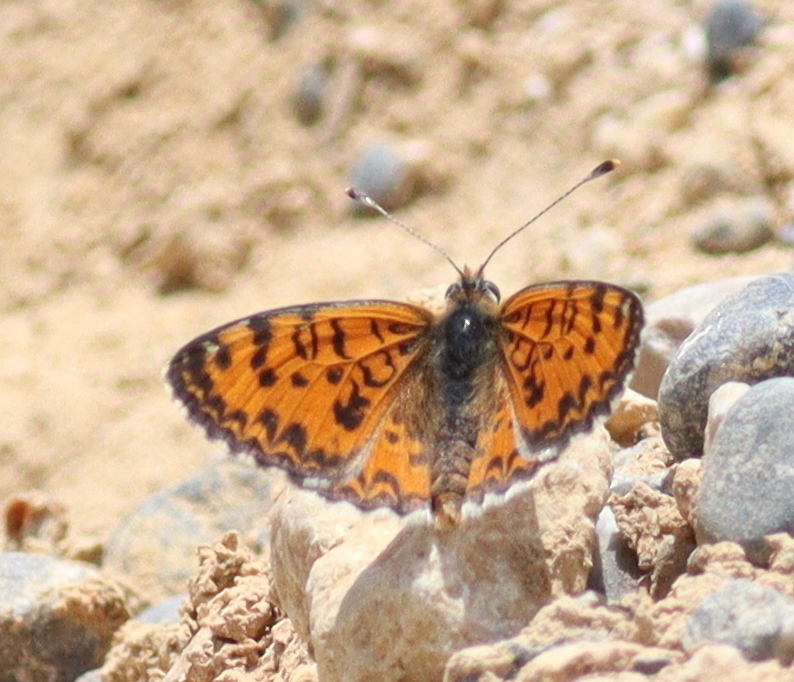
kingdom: Animalia
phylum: Arthropoda
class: Insecta
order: Lepidoptera
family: Nymphalidae
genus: Melitaea
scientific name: Melitaea trivia
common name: Lesser spotted fritillary
